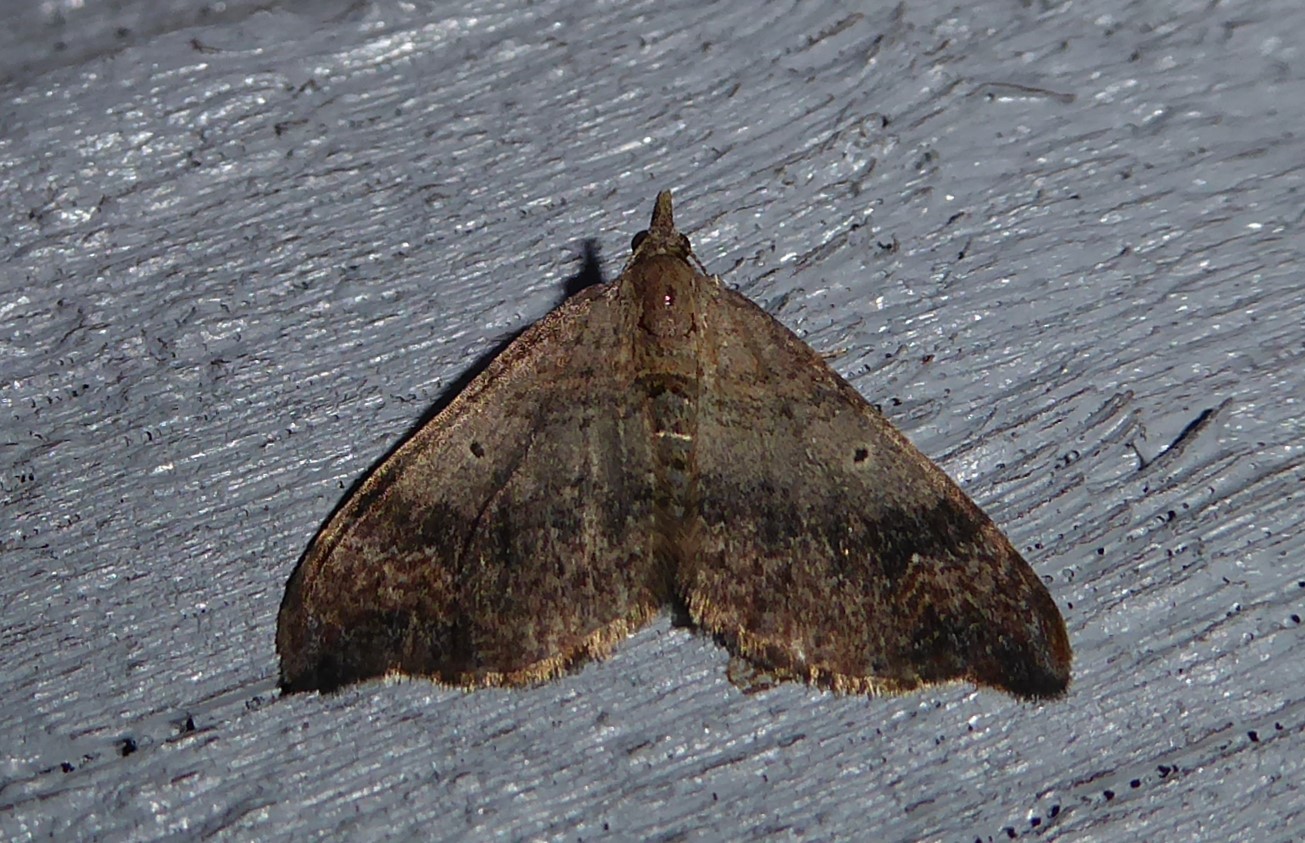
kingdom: Animalia
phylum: Arthropoda
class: Insecta
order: Lepidoptera
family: Geometridae
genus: Homodotis
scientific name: Homodotis megaspilata
